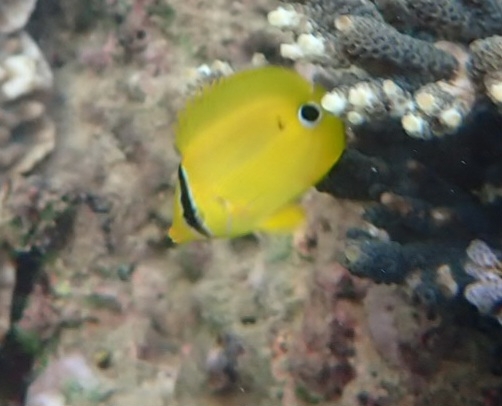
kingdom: Animalia
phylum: Chordata
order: Perciformes
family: Chaetodontidae
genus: Chaetodon
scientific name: Chaetodon andamanensis
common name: Yellow butterflyfish
